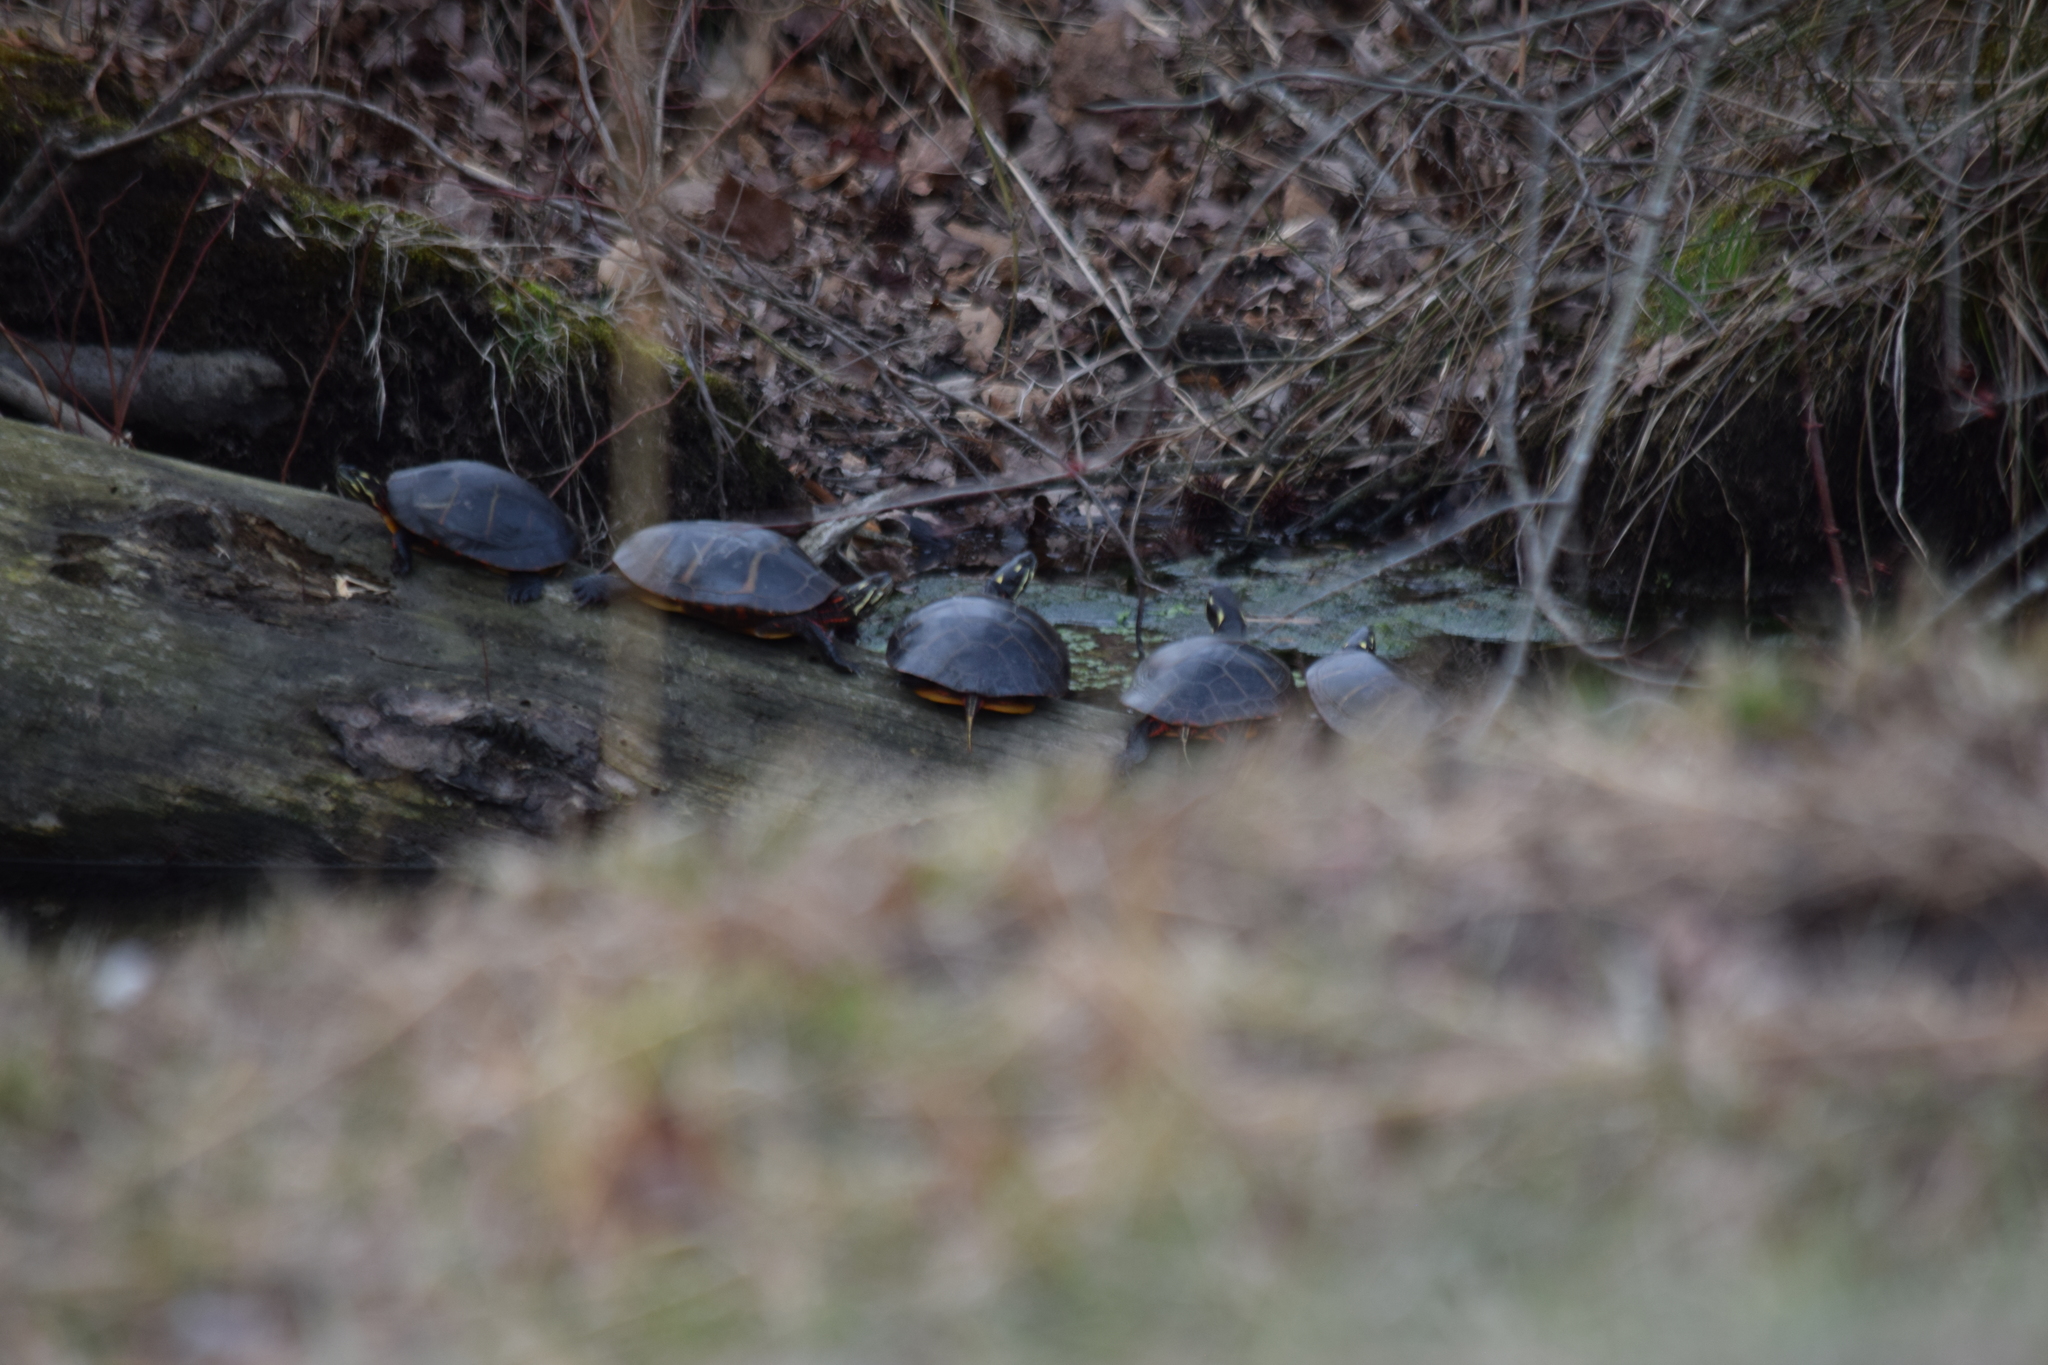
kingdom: Animalia
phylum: Chordata
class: Testudines
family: Emydidae
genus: Chrysemys
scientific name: Chrysemys picta
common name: Painted turtle
